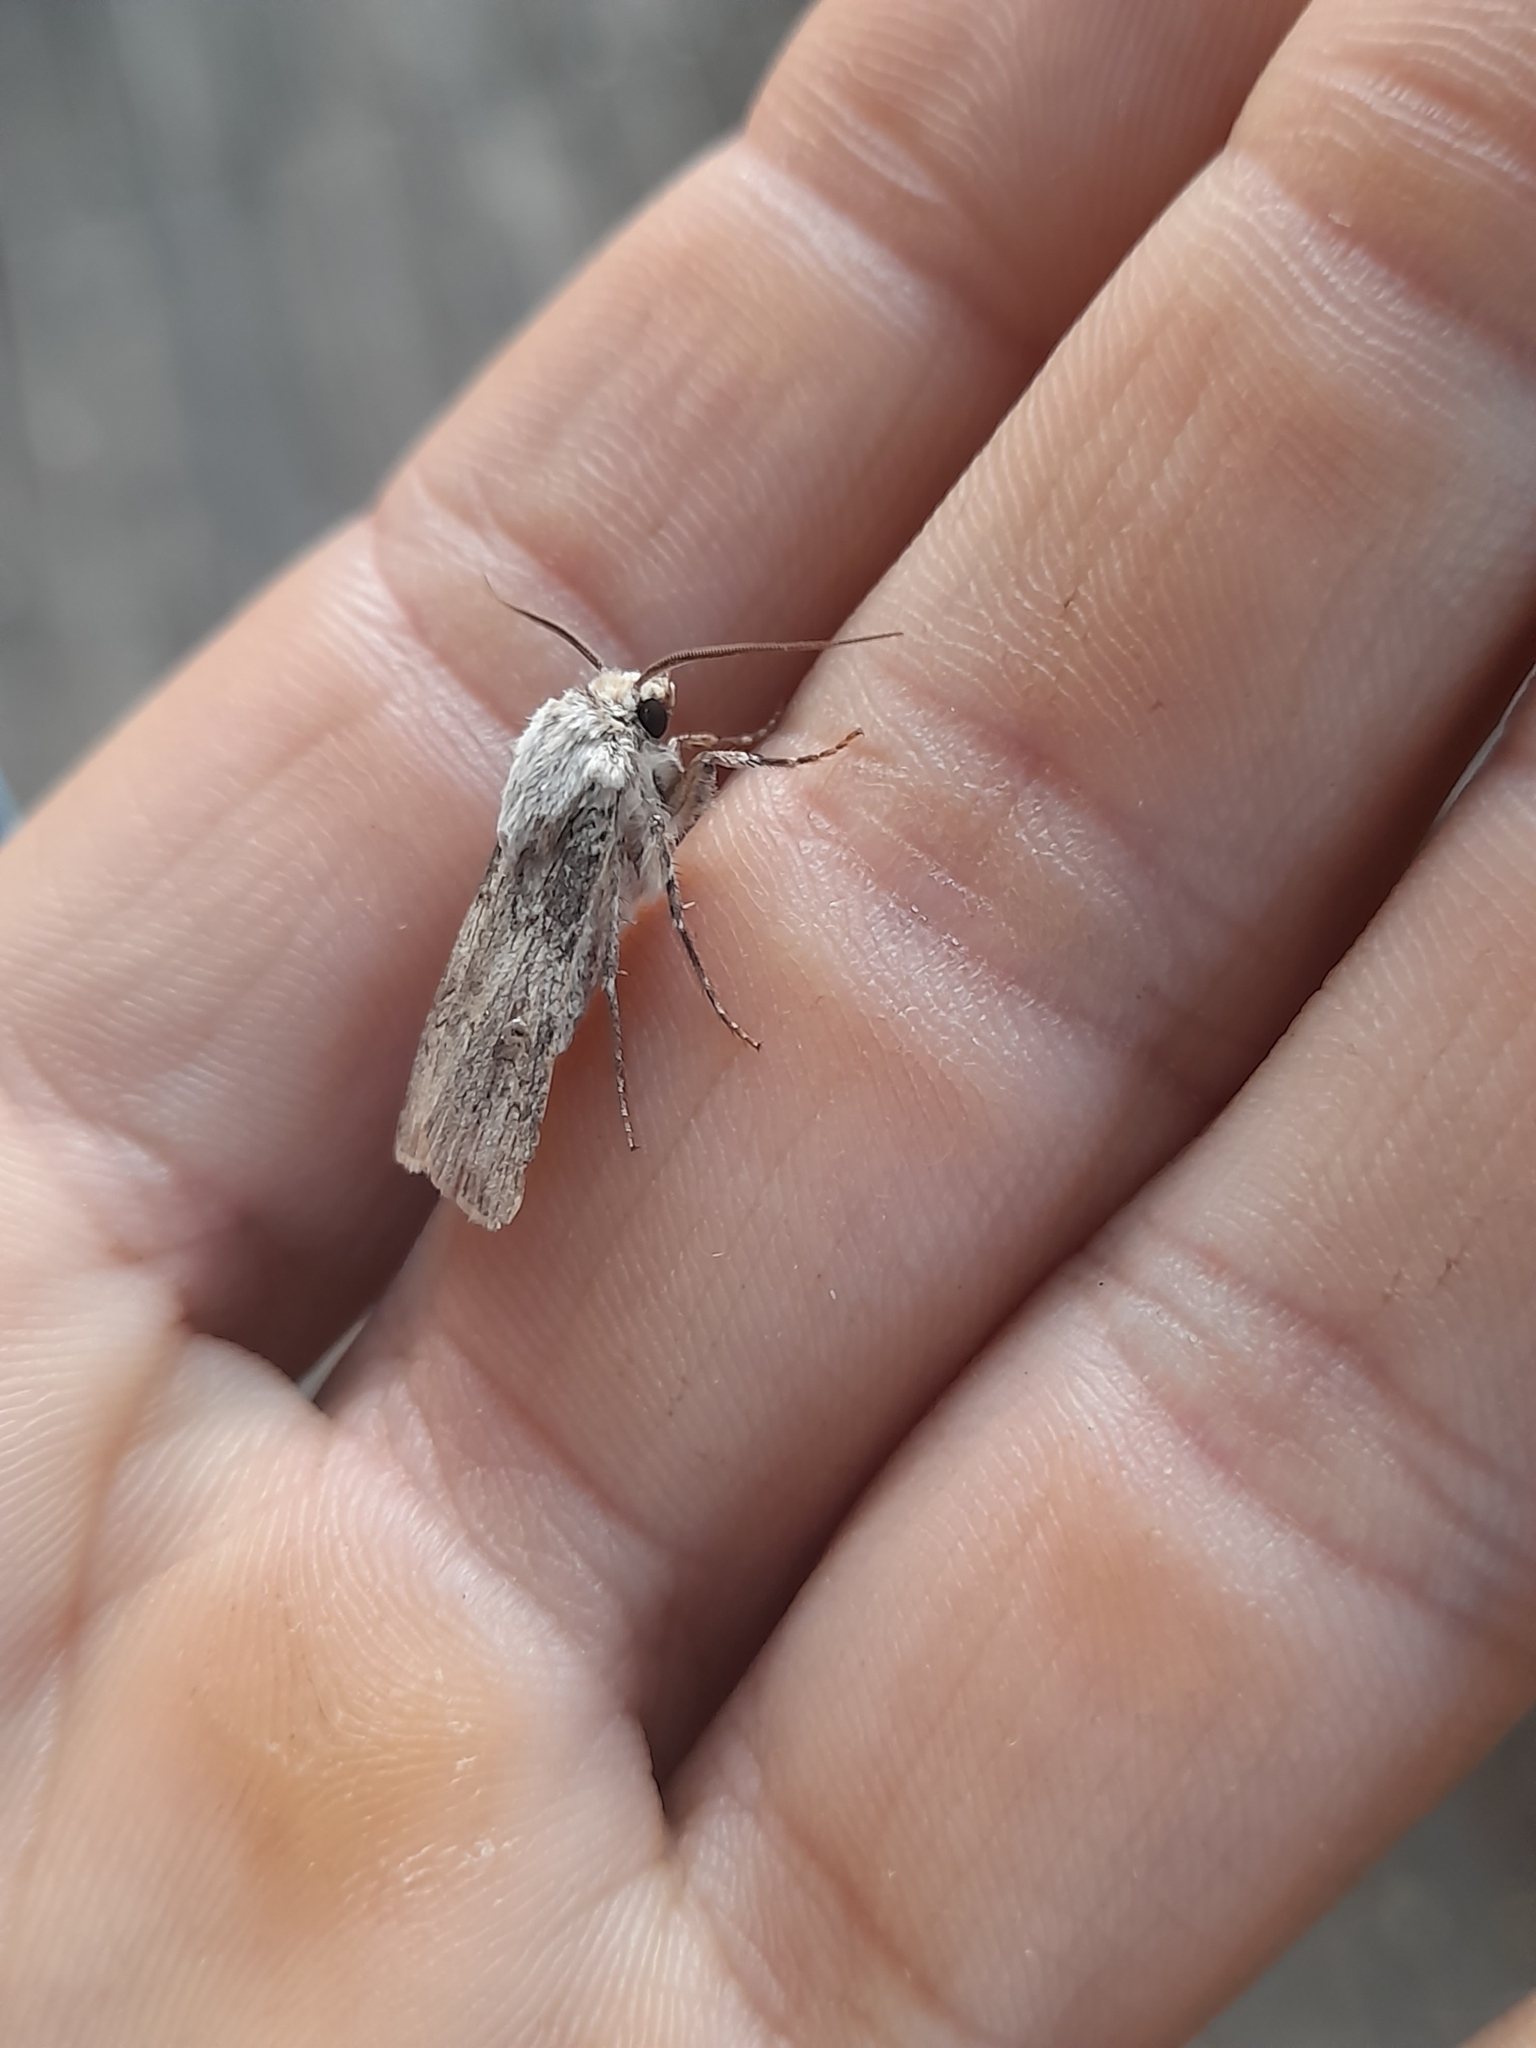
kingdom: Animalia
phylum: Arthropoda
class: Insecta
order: Lepidoptera
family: Noctuidae
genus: Agrotis
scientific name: Agrotis
